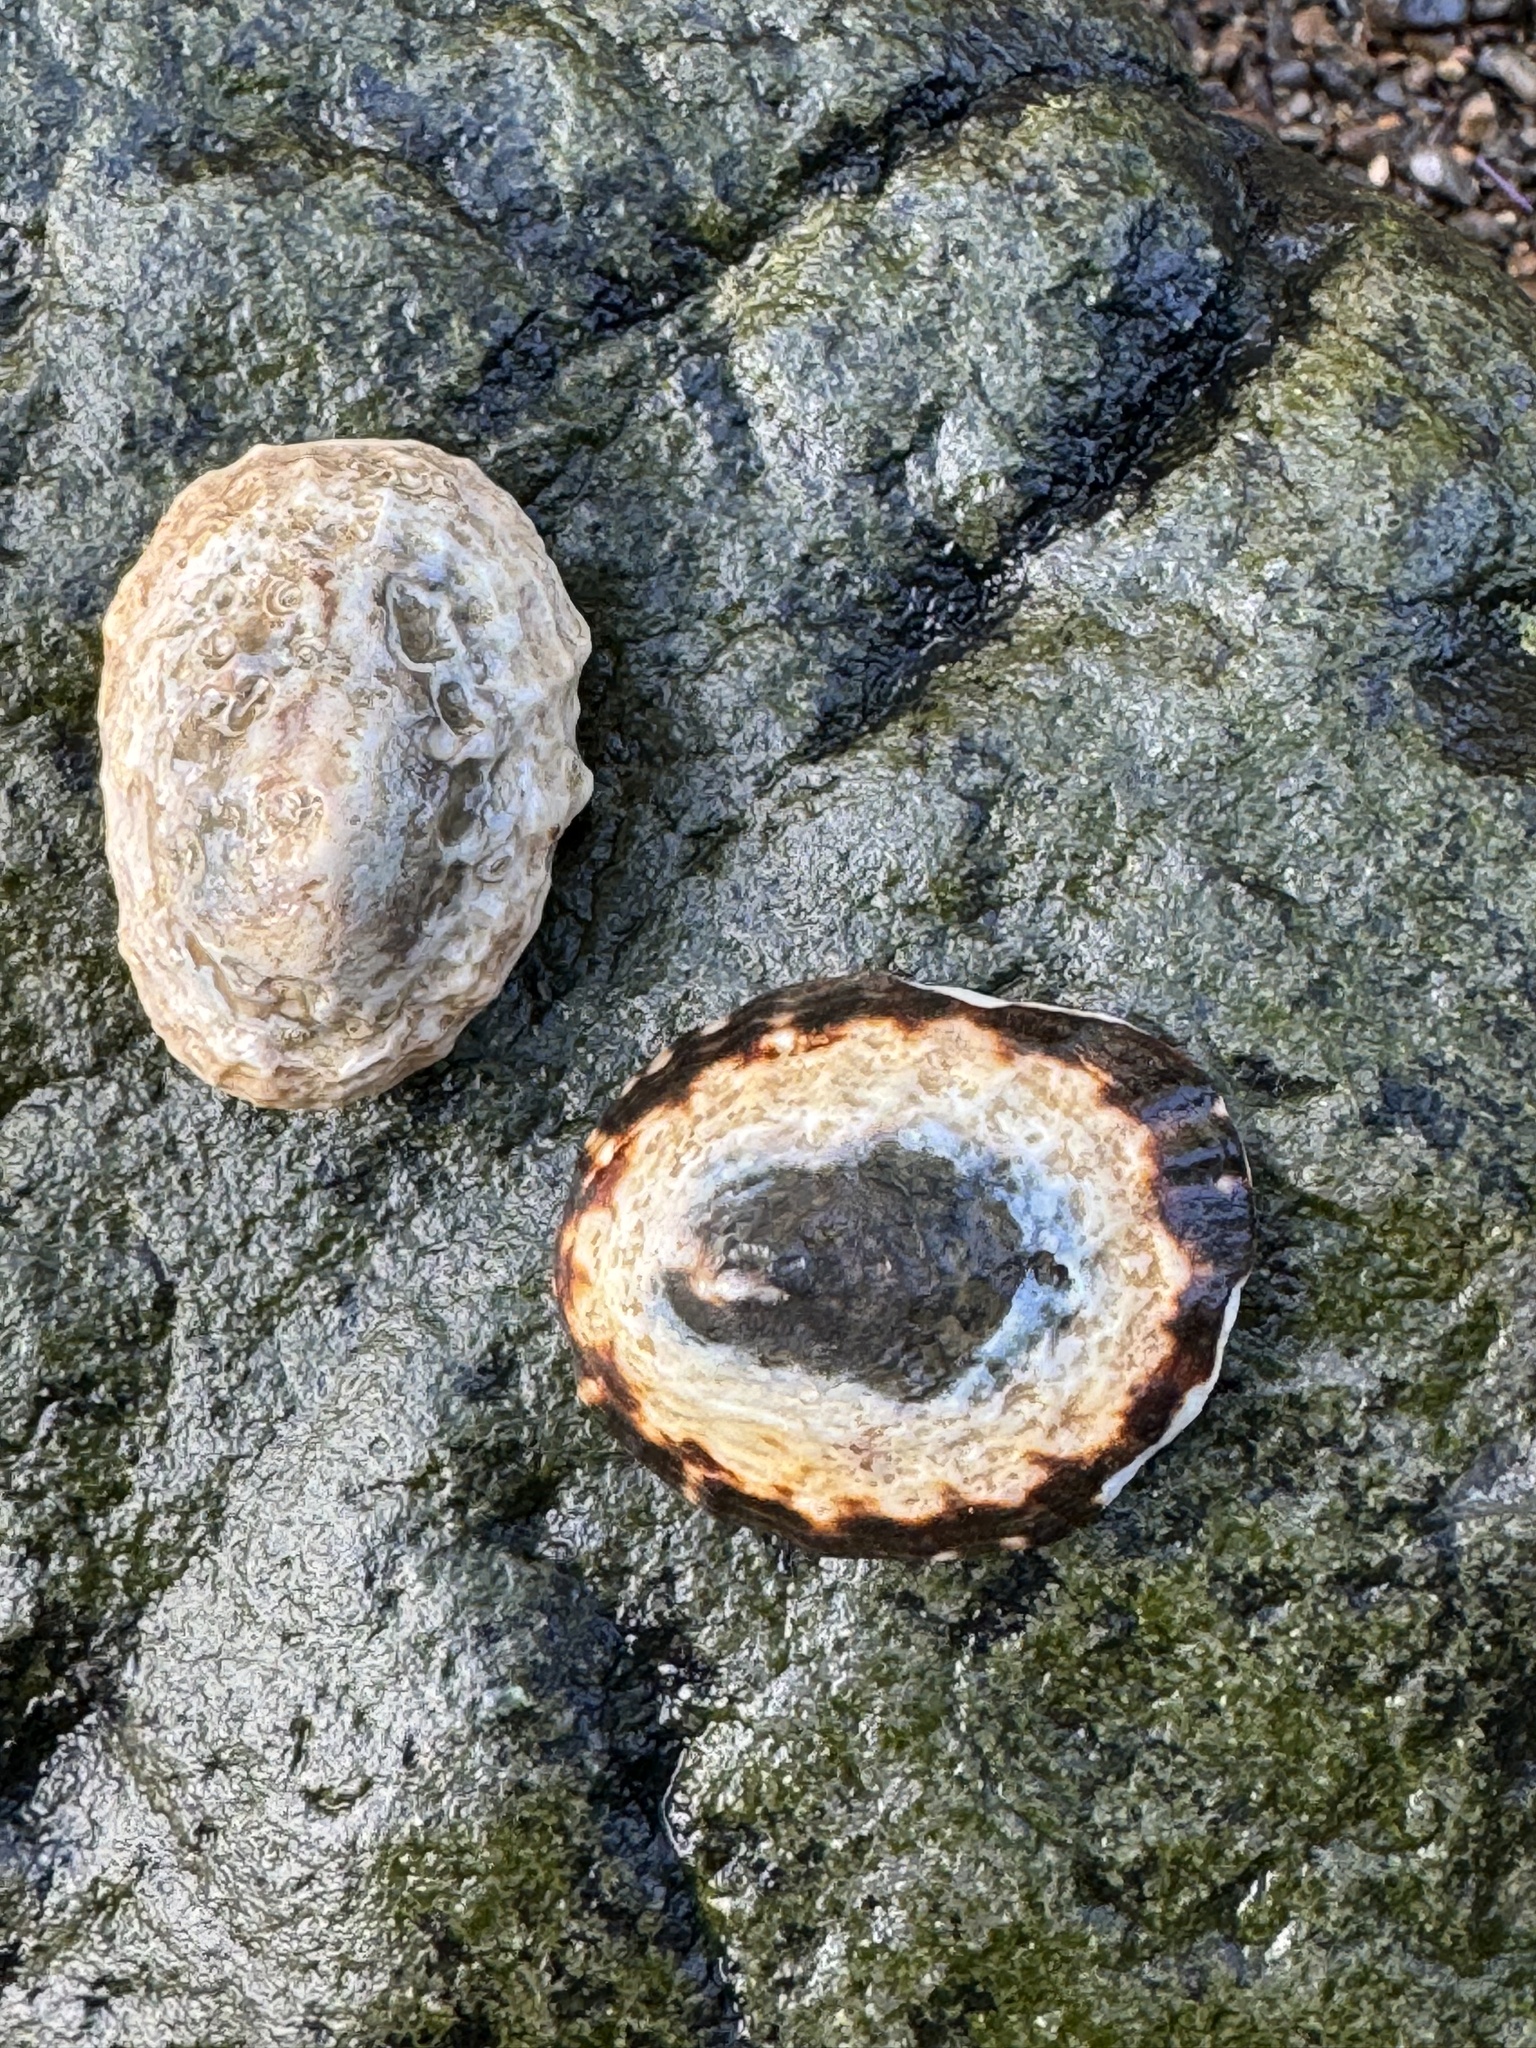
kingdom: Animalia
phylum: Mollusca
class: Gastropoda
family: Lottiidae
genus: Lottia
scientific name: Lottia pelta
